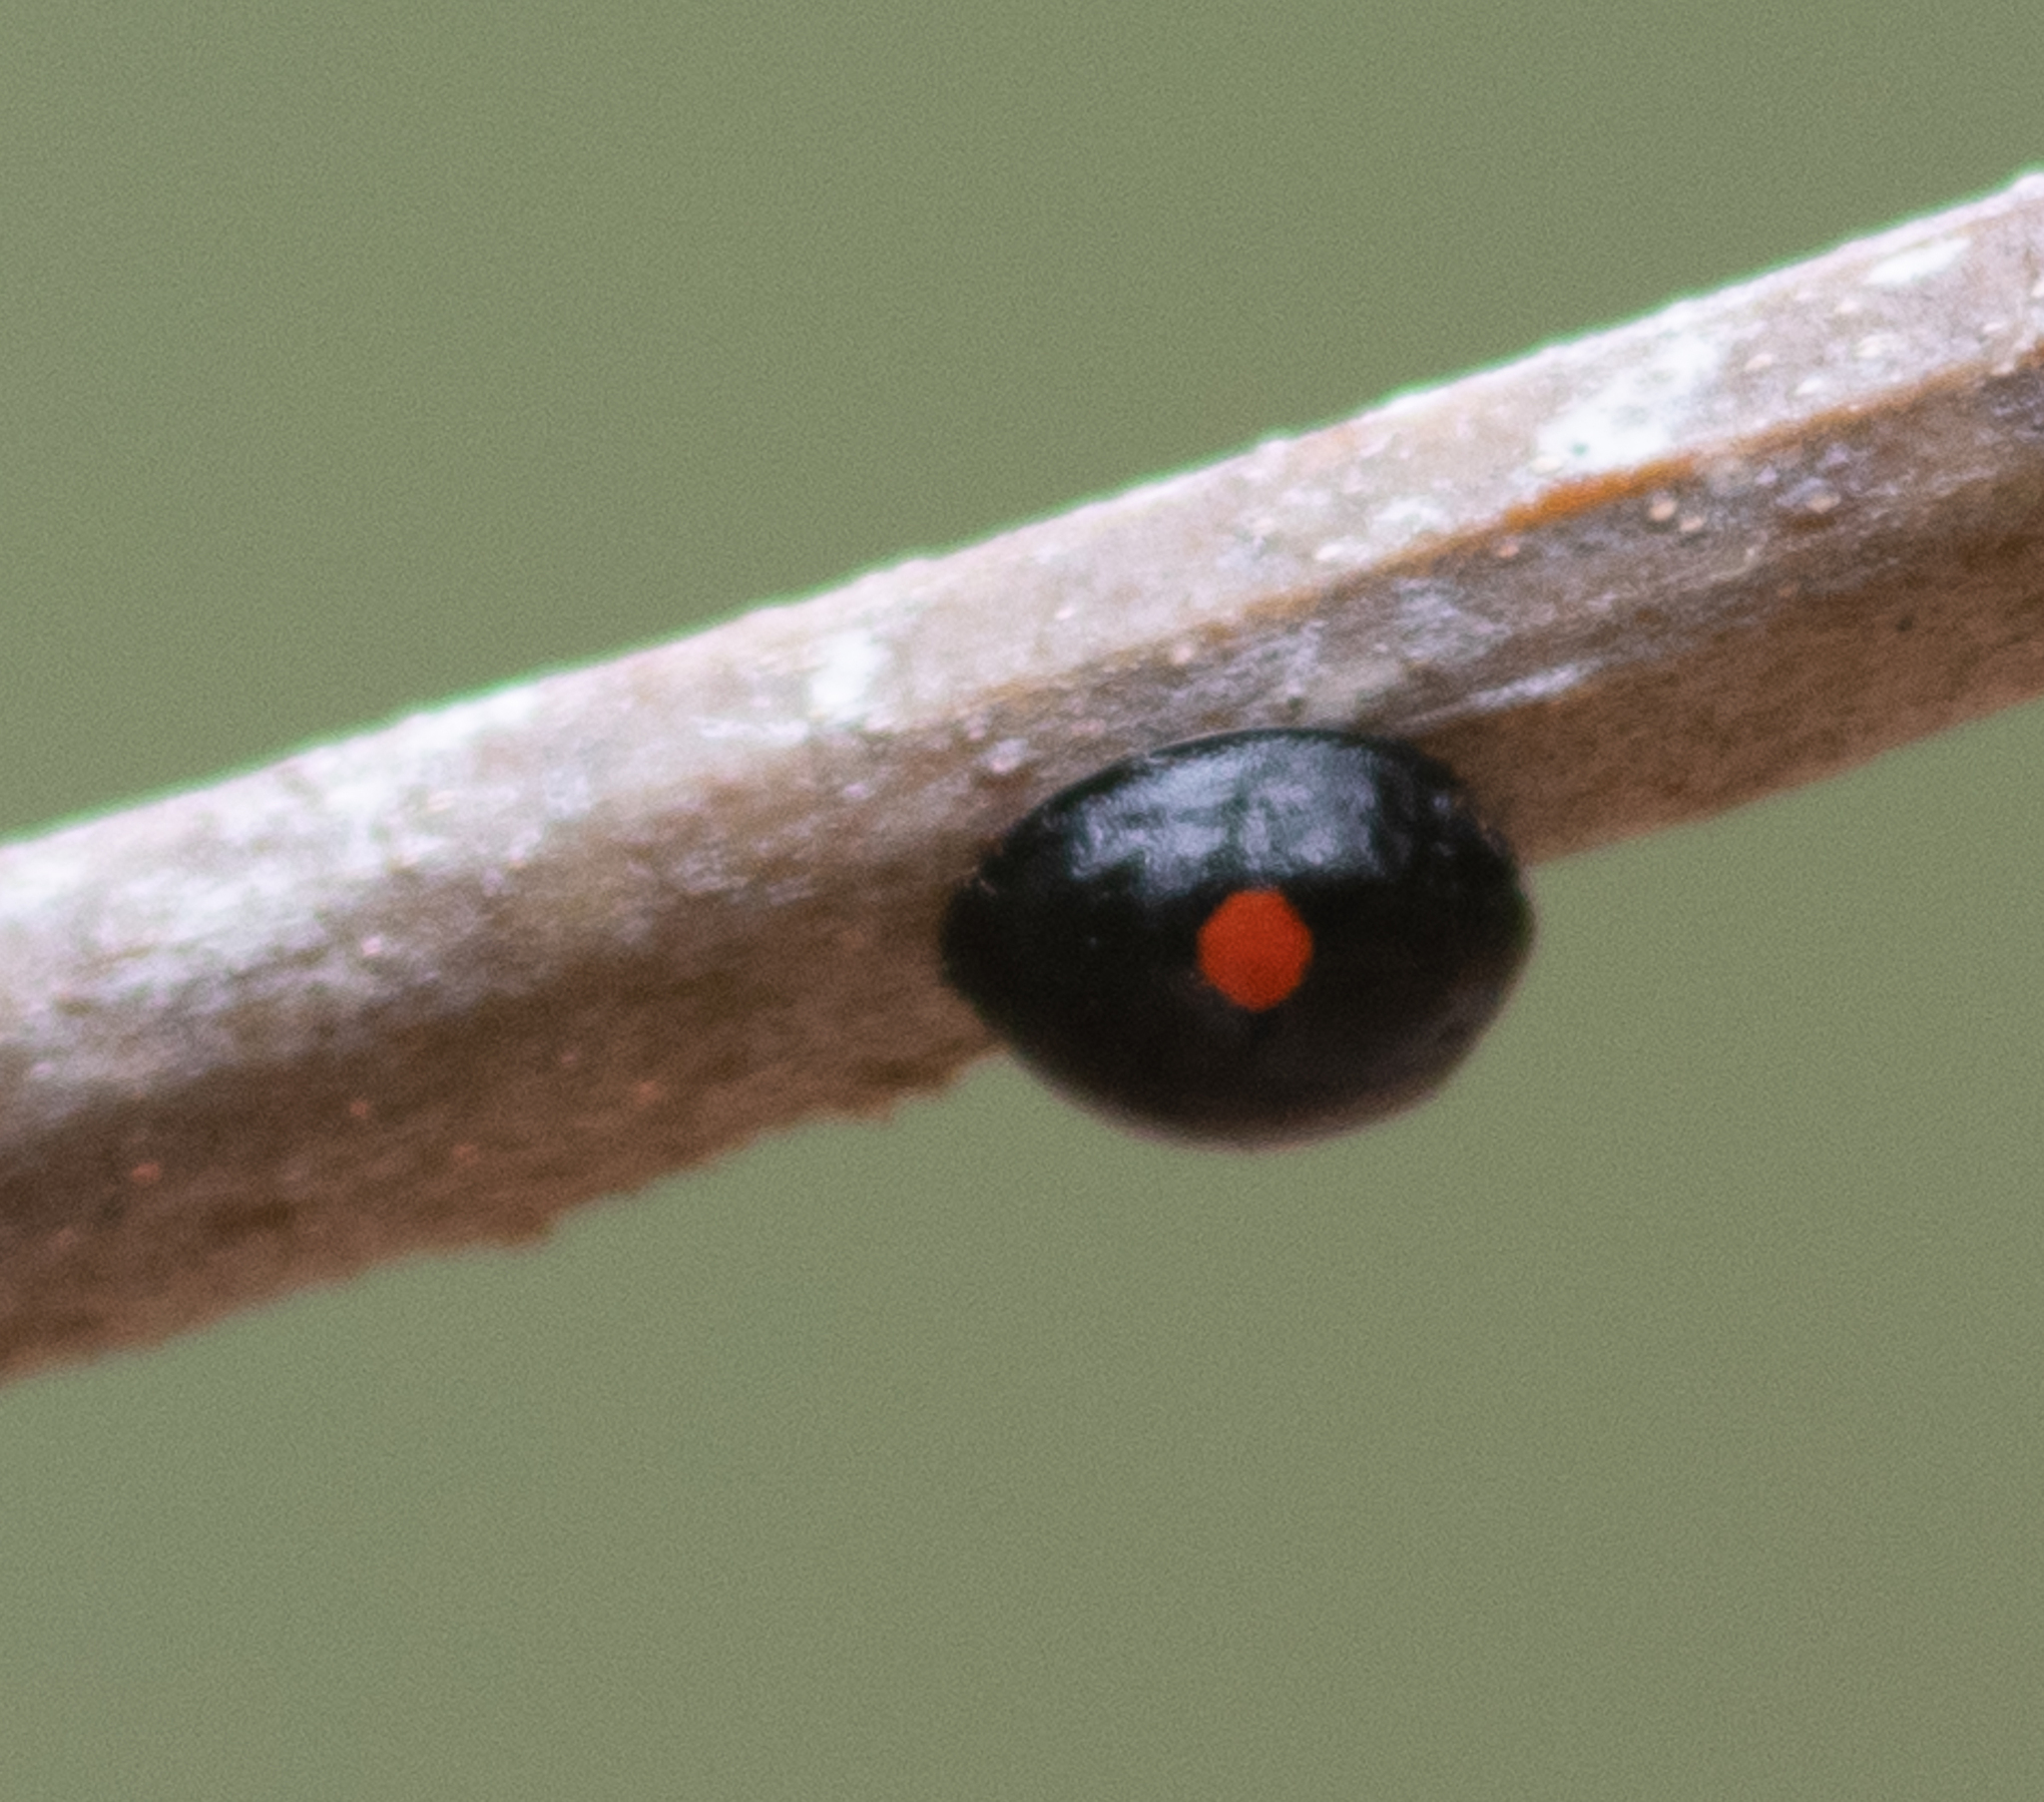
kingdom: Animalia
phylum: Arthropoda
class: Insecta
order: Coleoptera
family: Coccinellidae
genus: Chilocorus
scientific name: Chilocorus stigma
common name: Twicestabbed lady beetle
